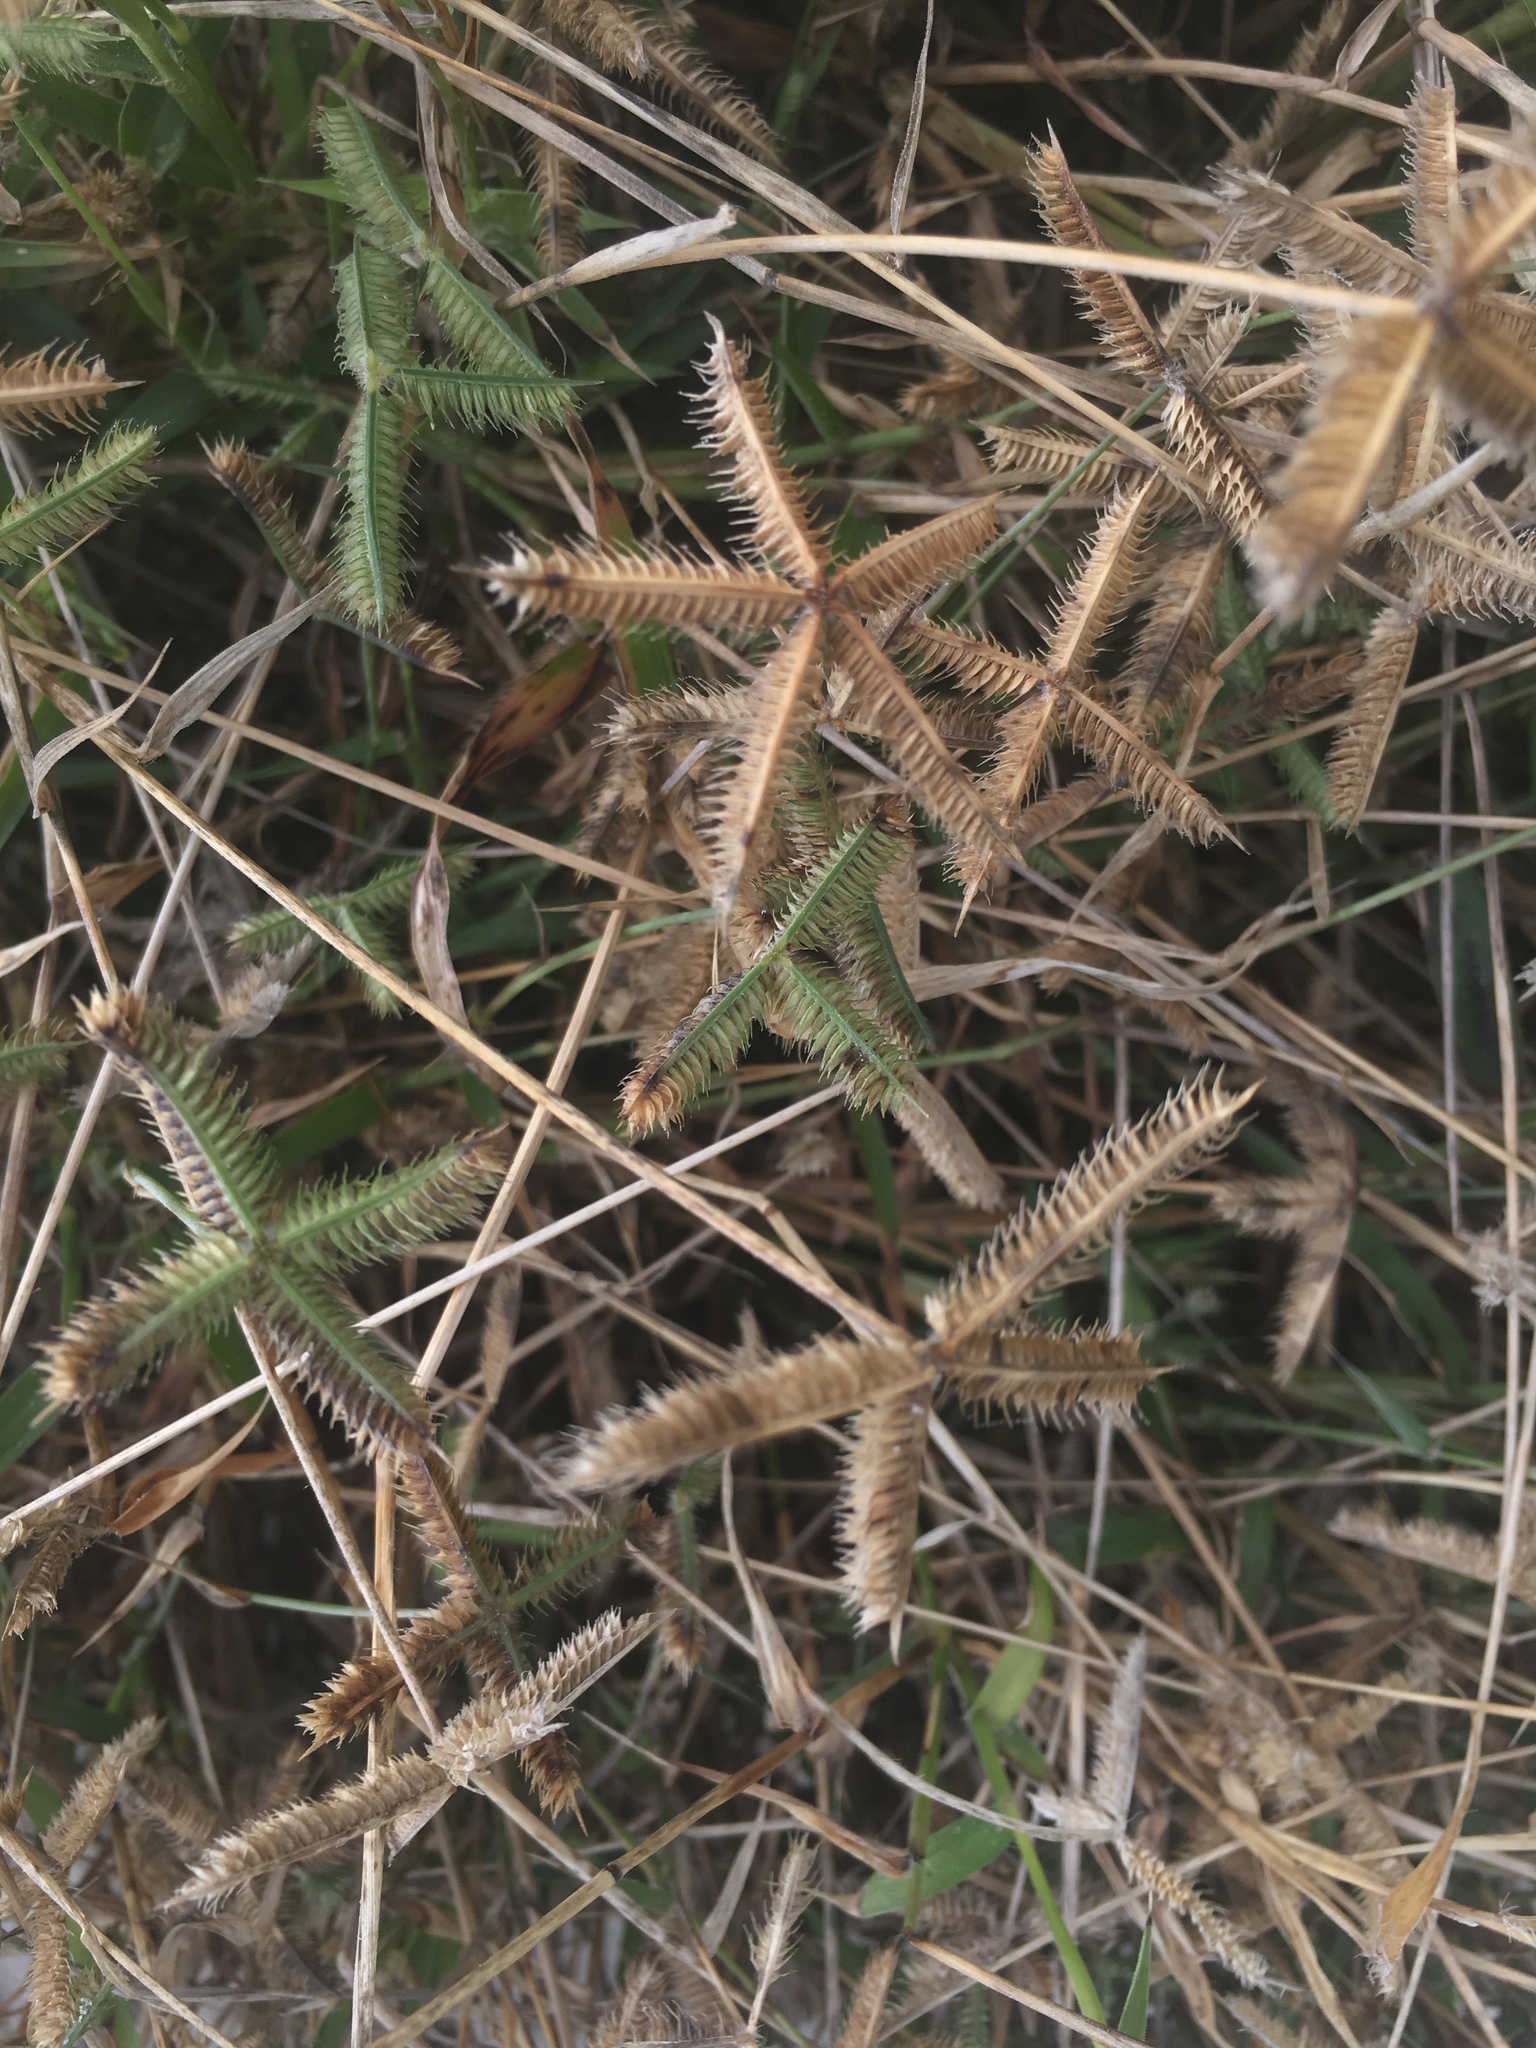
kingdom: Plantae
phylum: Tracheophyta
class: Liliopsida
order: Poales
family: Poaceae
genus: Dactyloctenium
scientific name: Dactyloctenium aegyptium
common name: Egyptian grass
